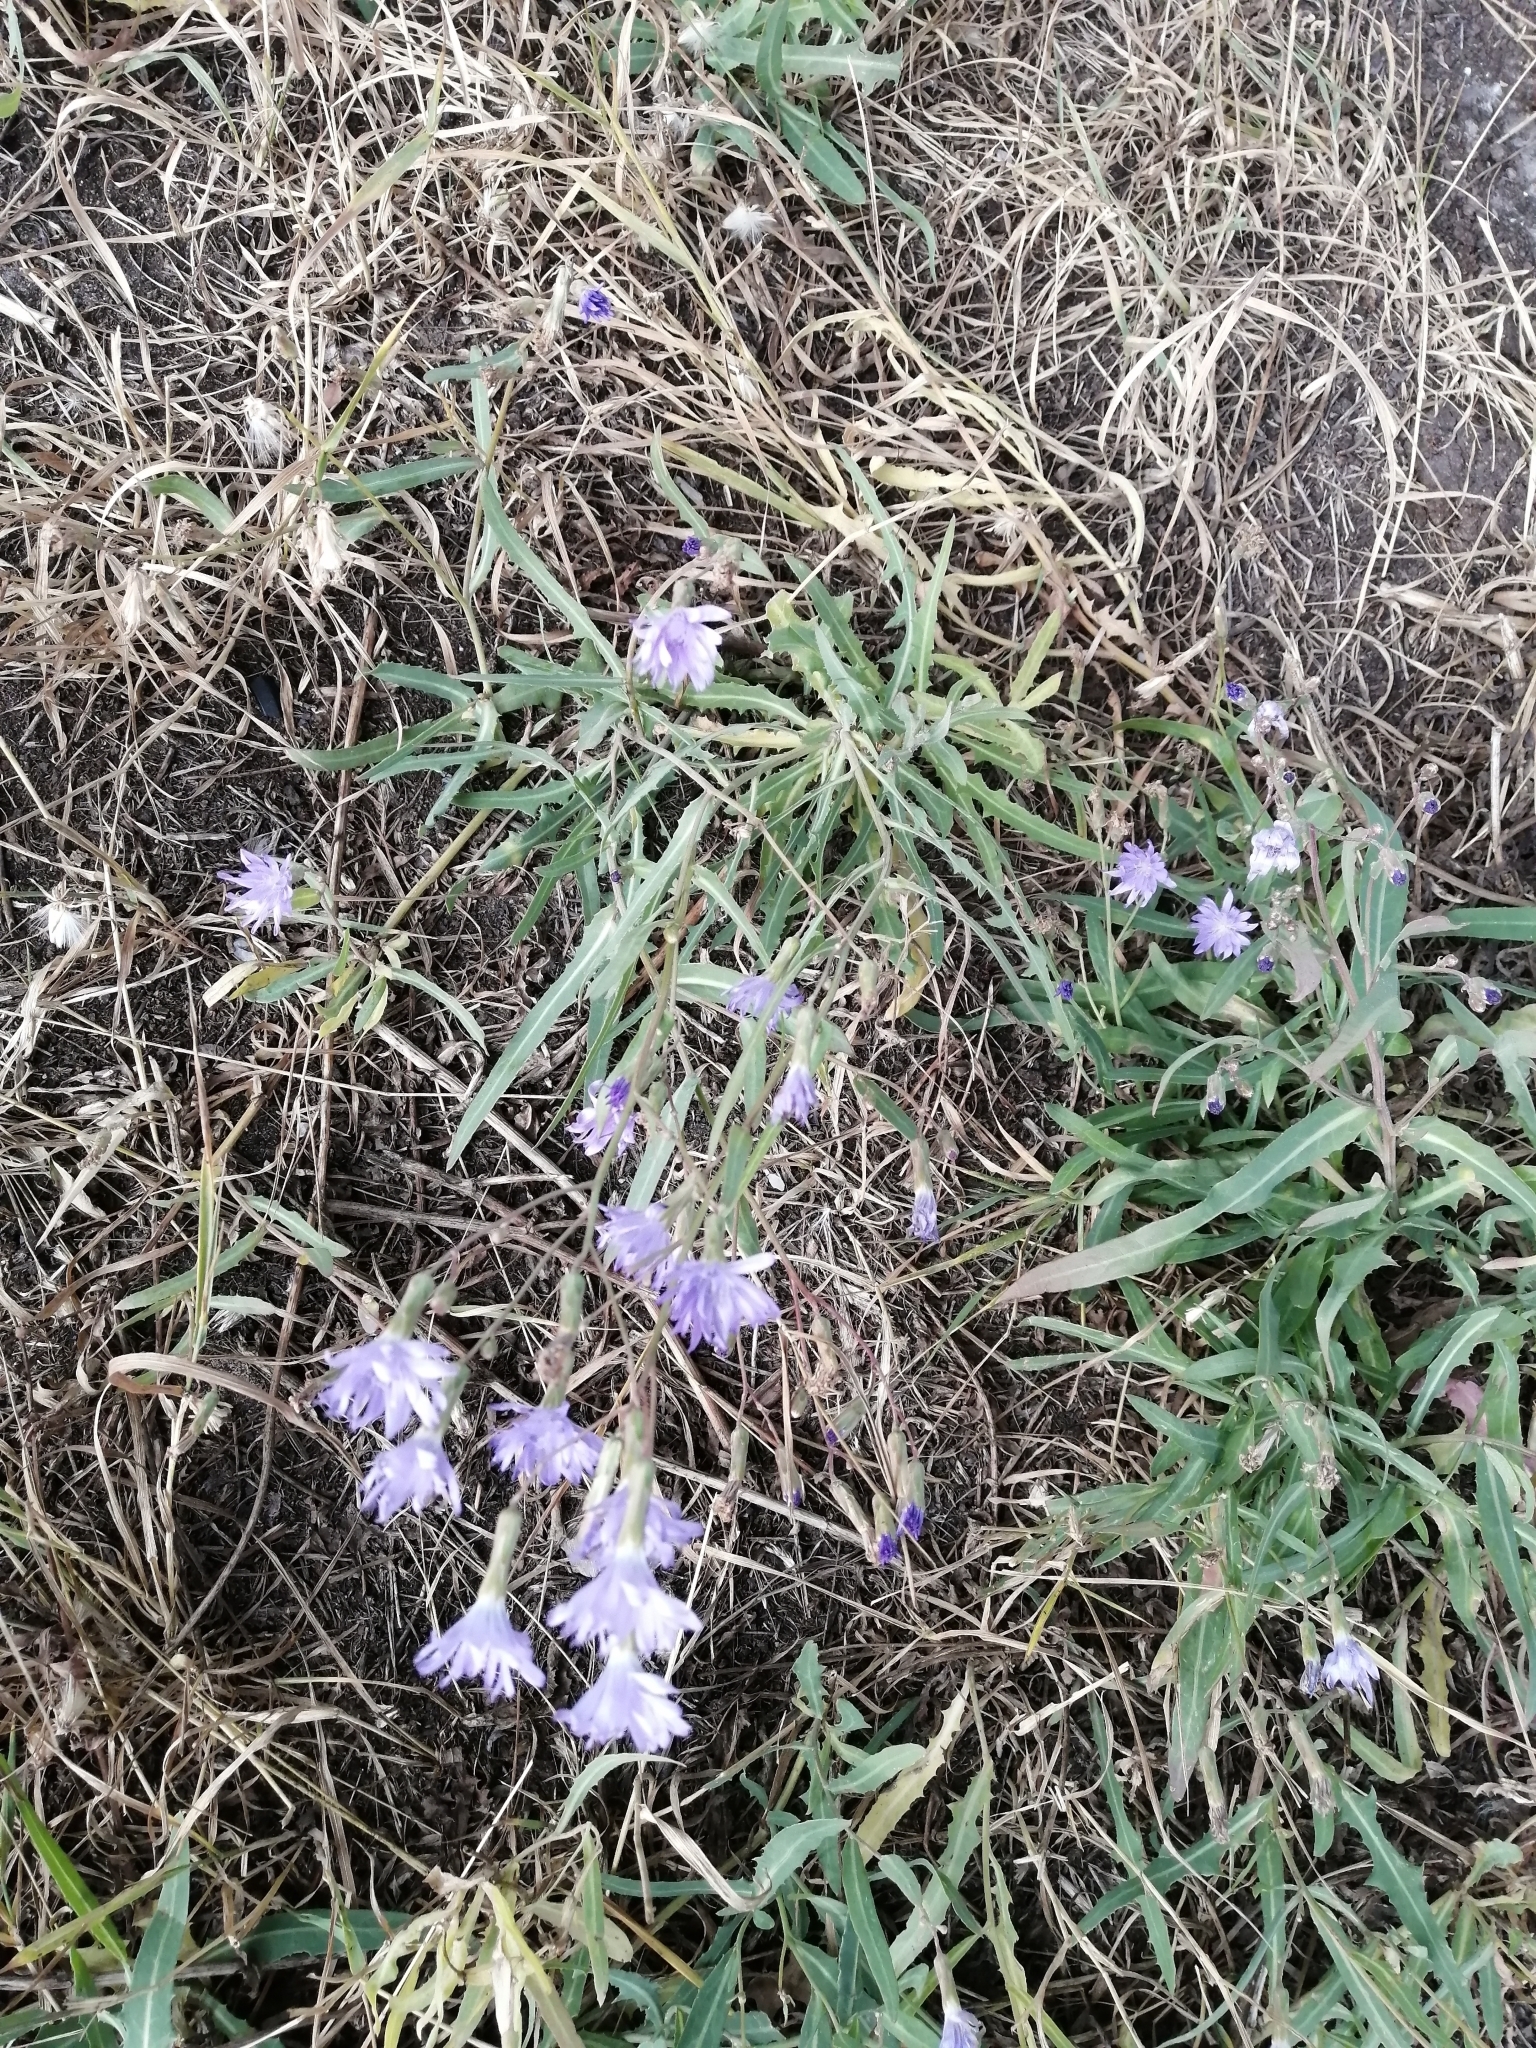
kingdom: Plantae
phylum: Tracheophyta
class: Magnoliopsida
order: Asterales
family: Asteraceae
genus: Lactuca
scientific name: Lactuca tatarica
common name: Blue lettuce
